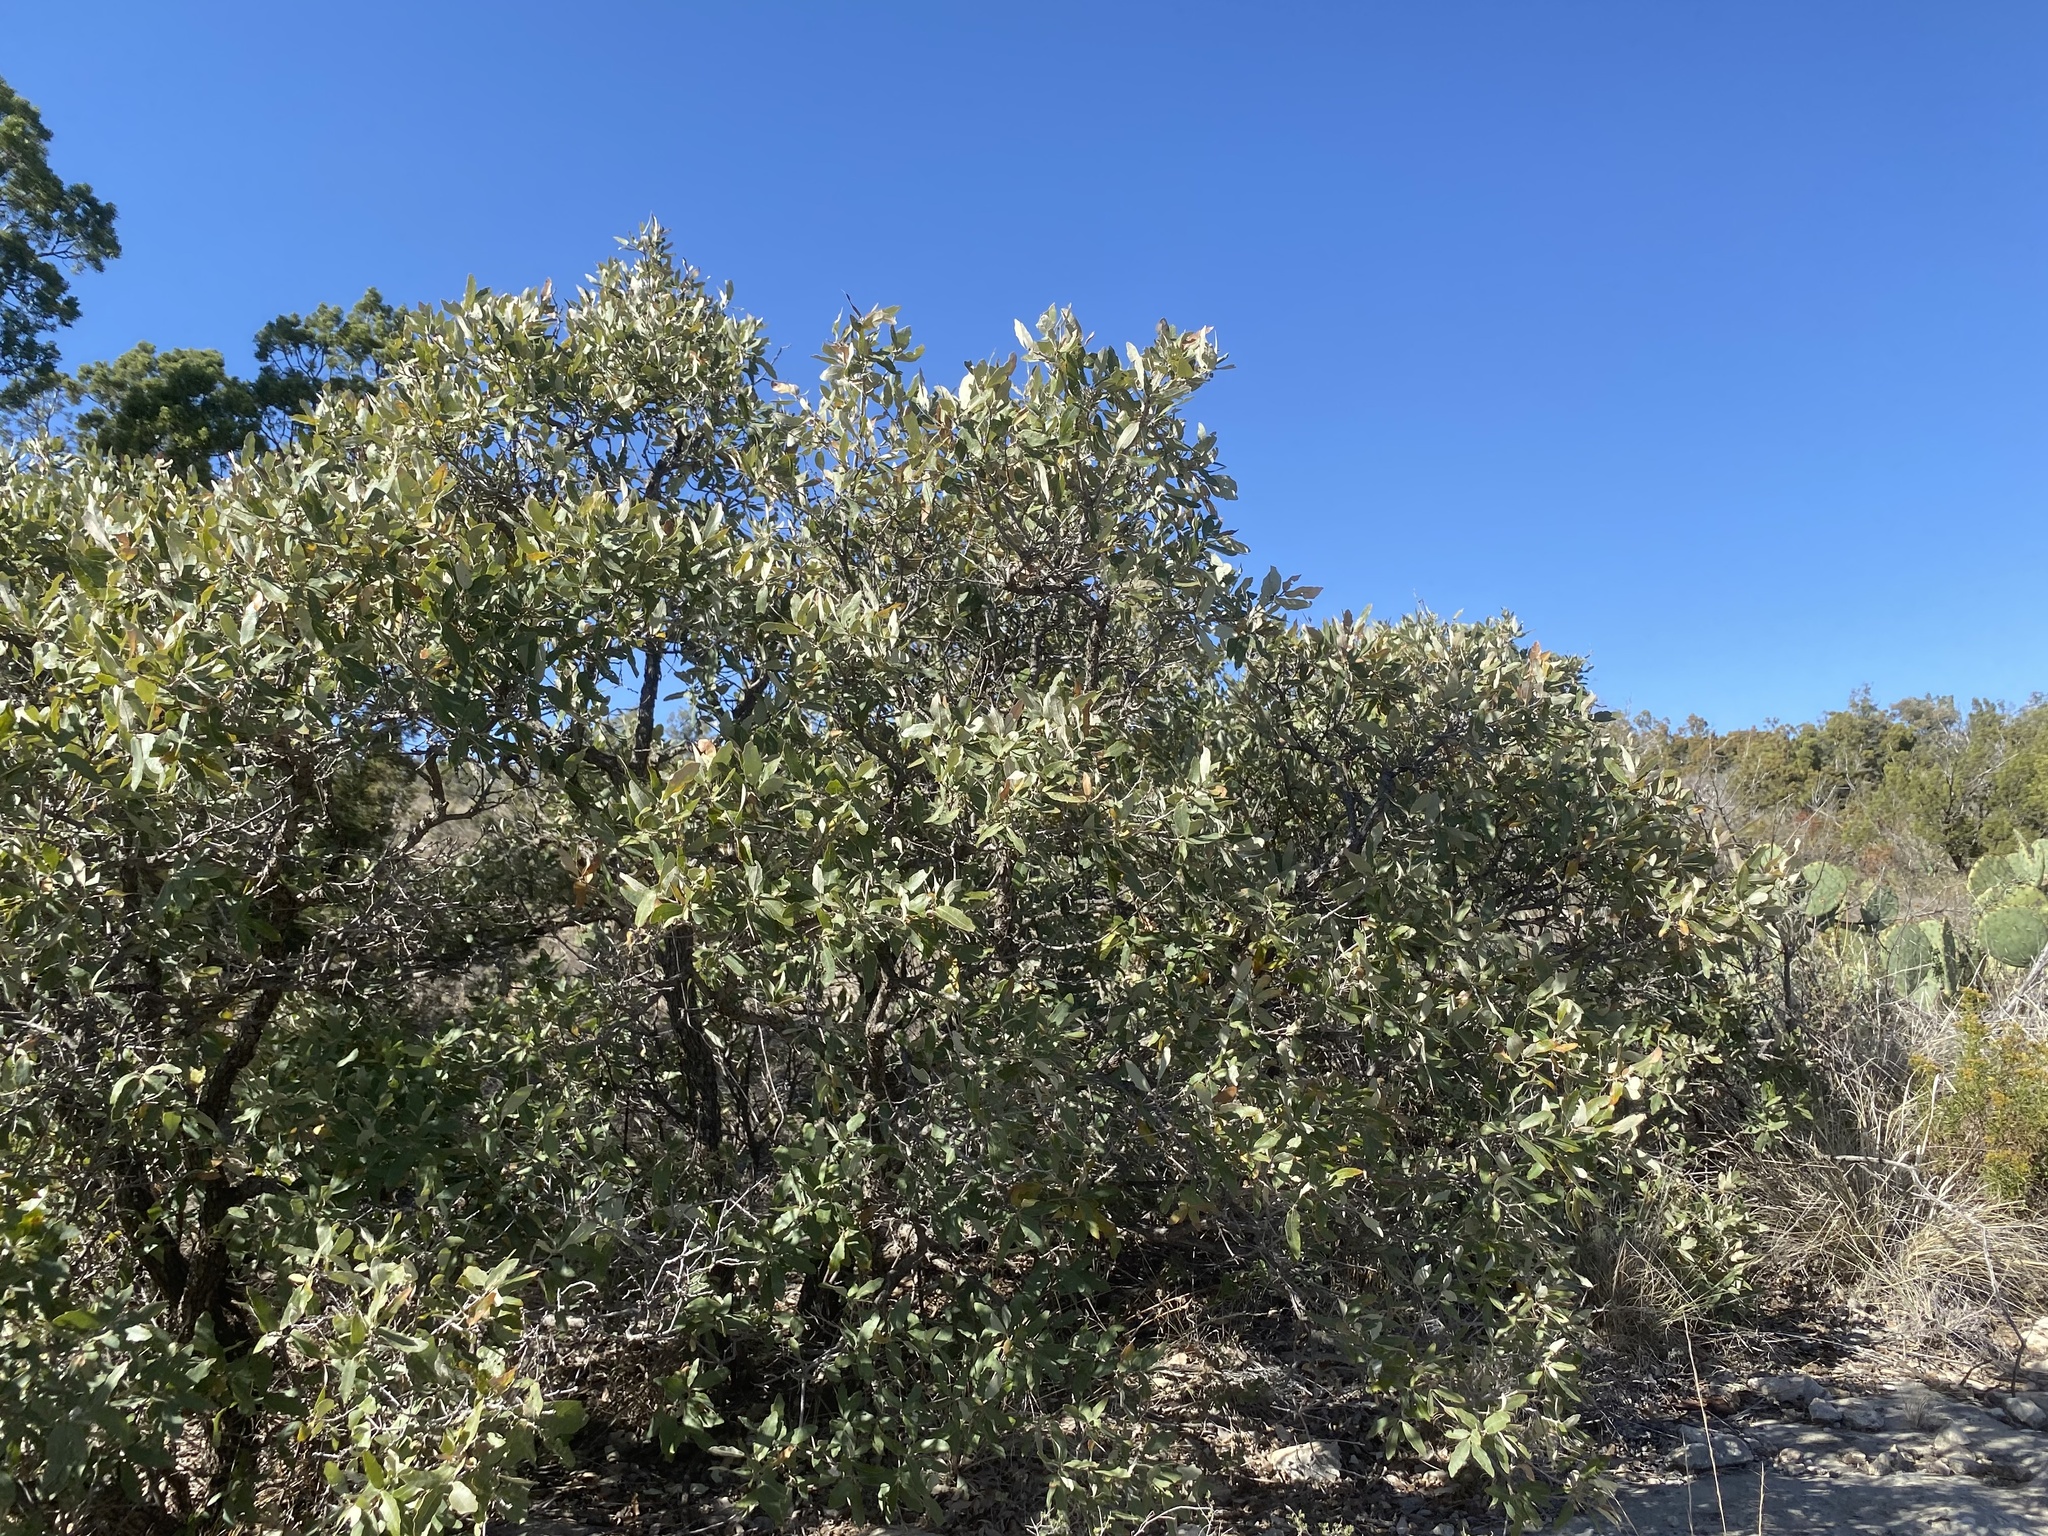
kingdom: Plantae
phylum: Tracheophyta
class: Magnoliopsida
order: Fagales
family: Fagaceae
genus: Quercus
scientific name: Quercus havardii
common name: Shinnery oak
